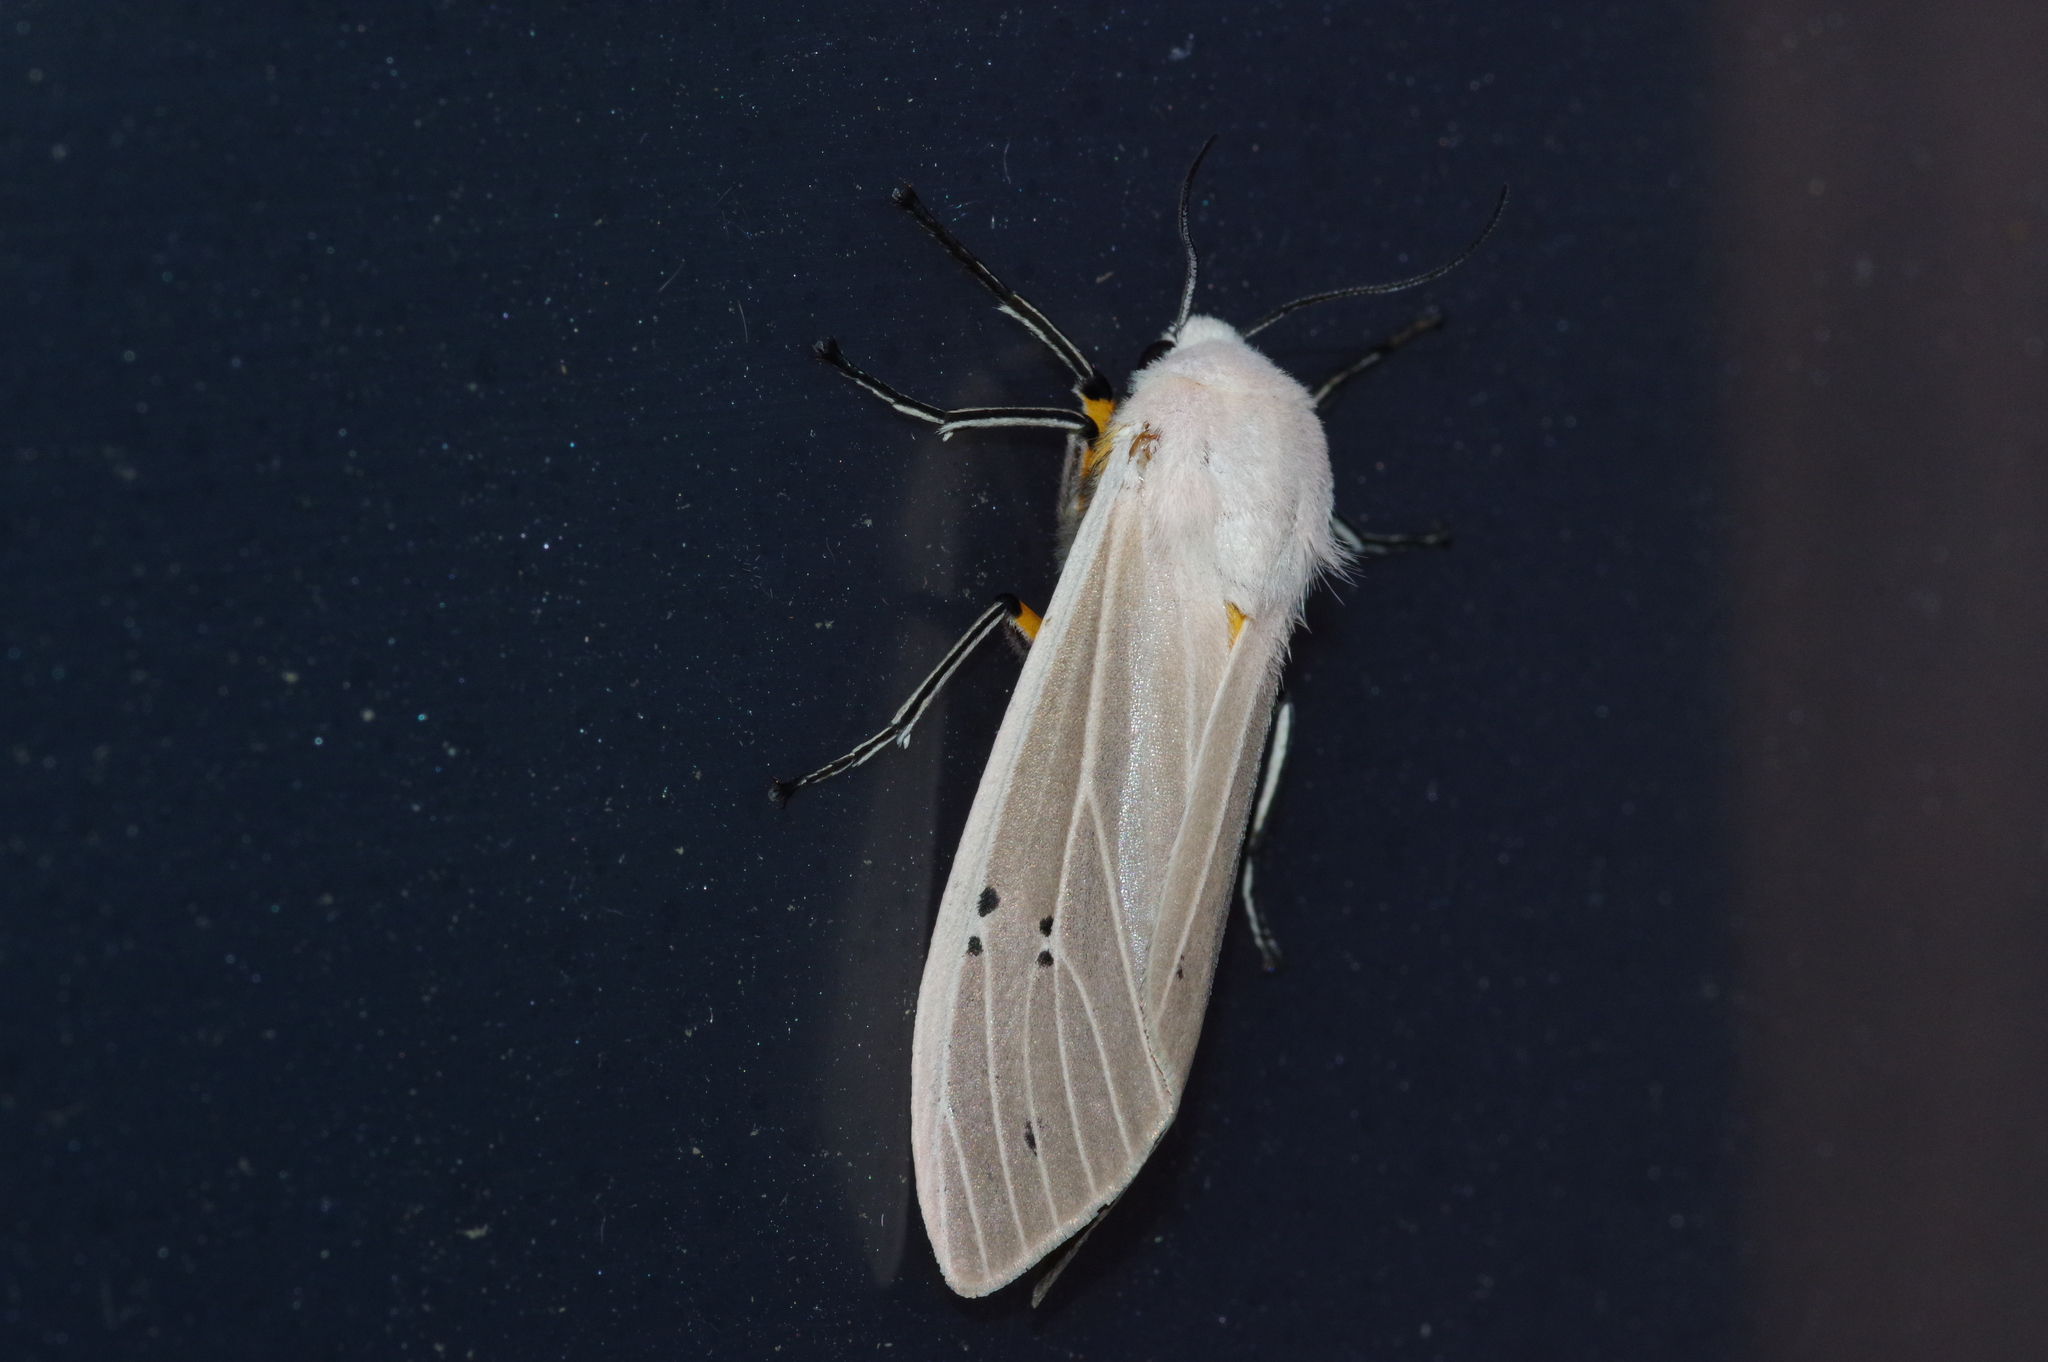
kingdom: Animalia
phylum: Arthropoda
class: Insecta
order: Lepidoptera
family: Erebidae
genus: Creatonotos
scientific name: Creatonotos transiens
